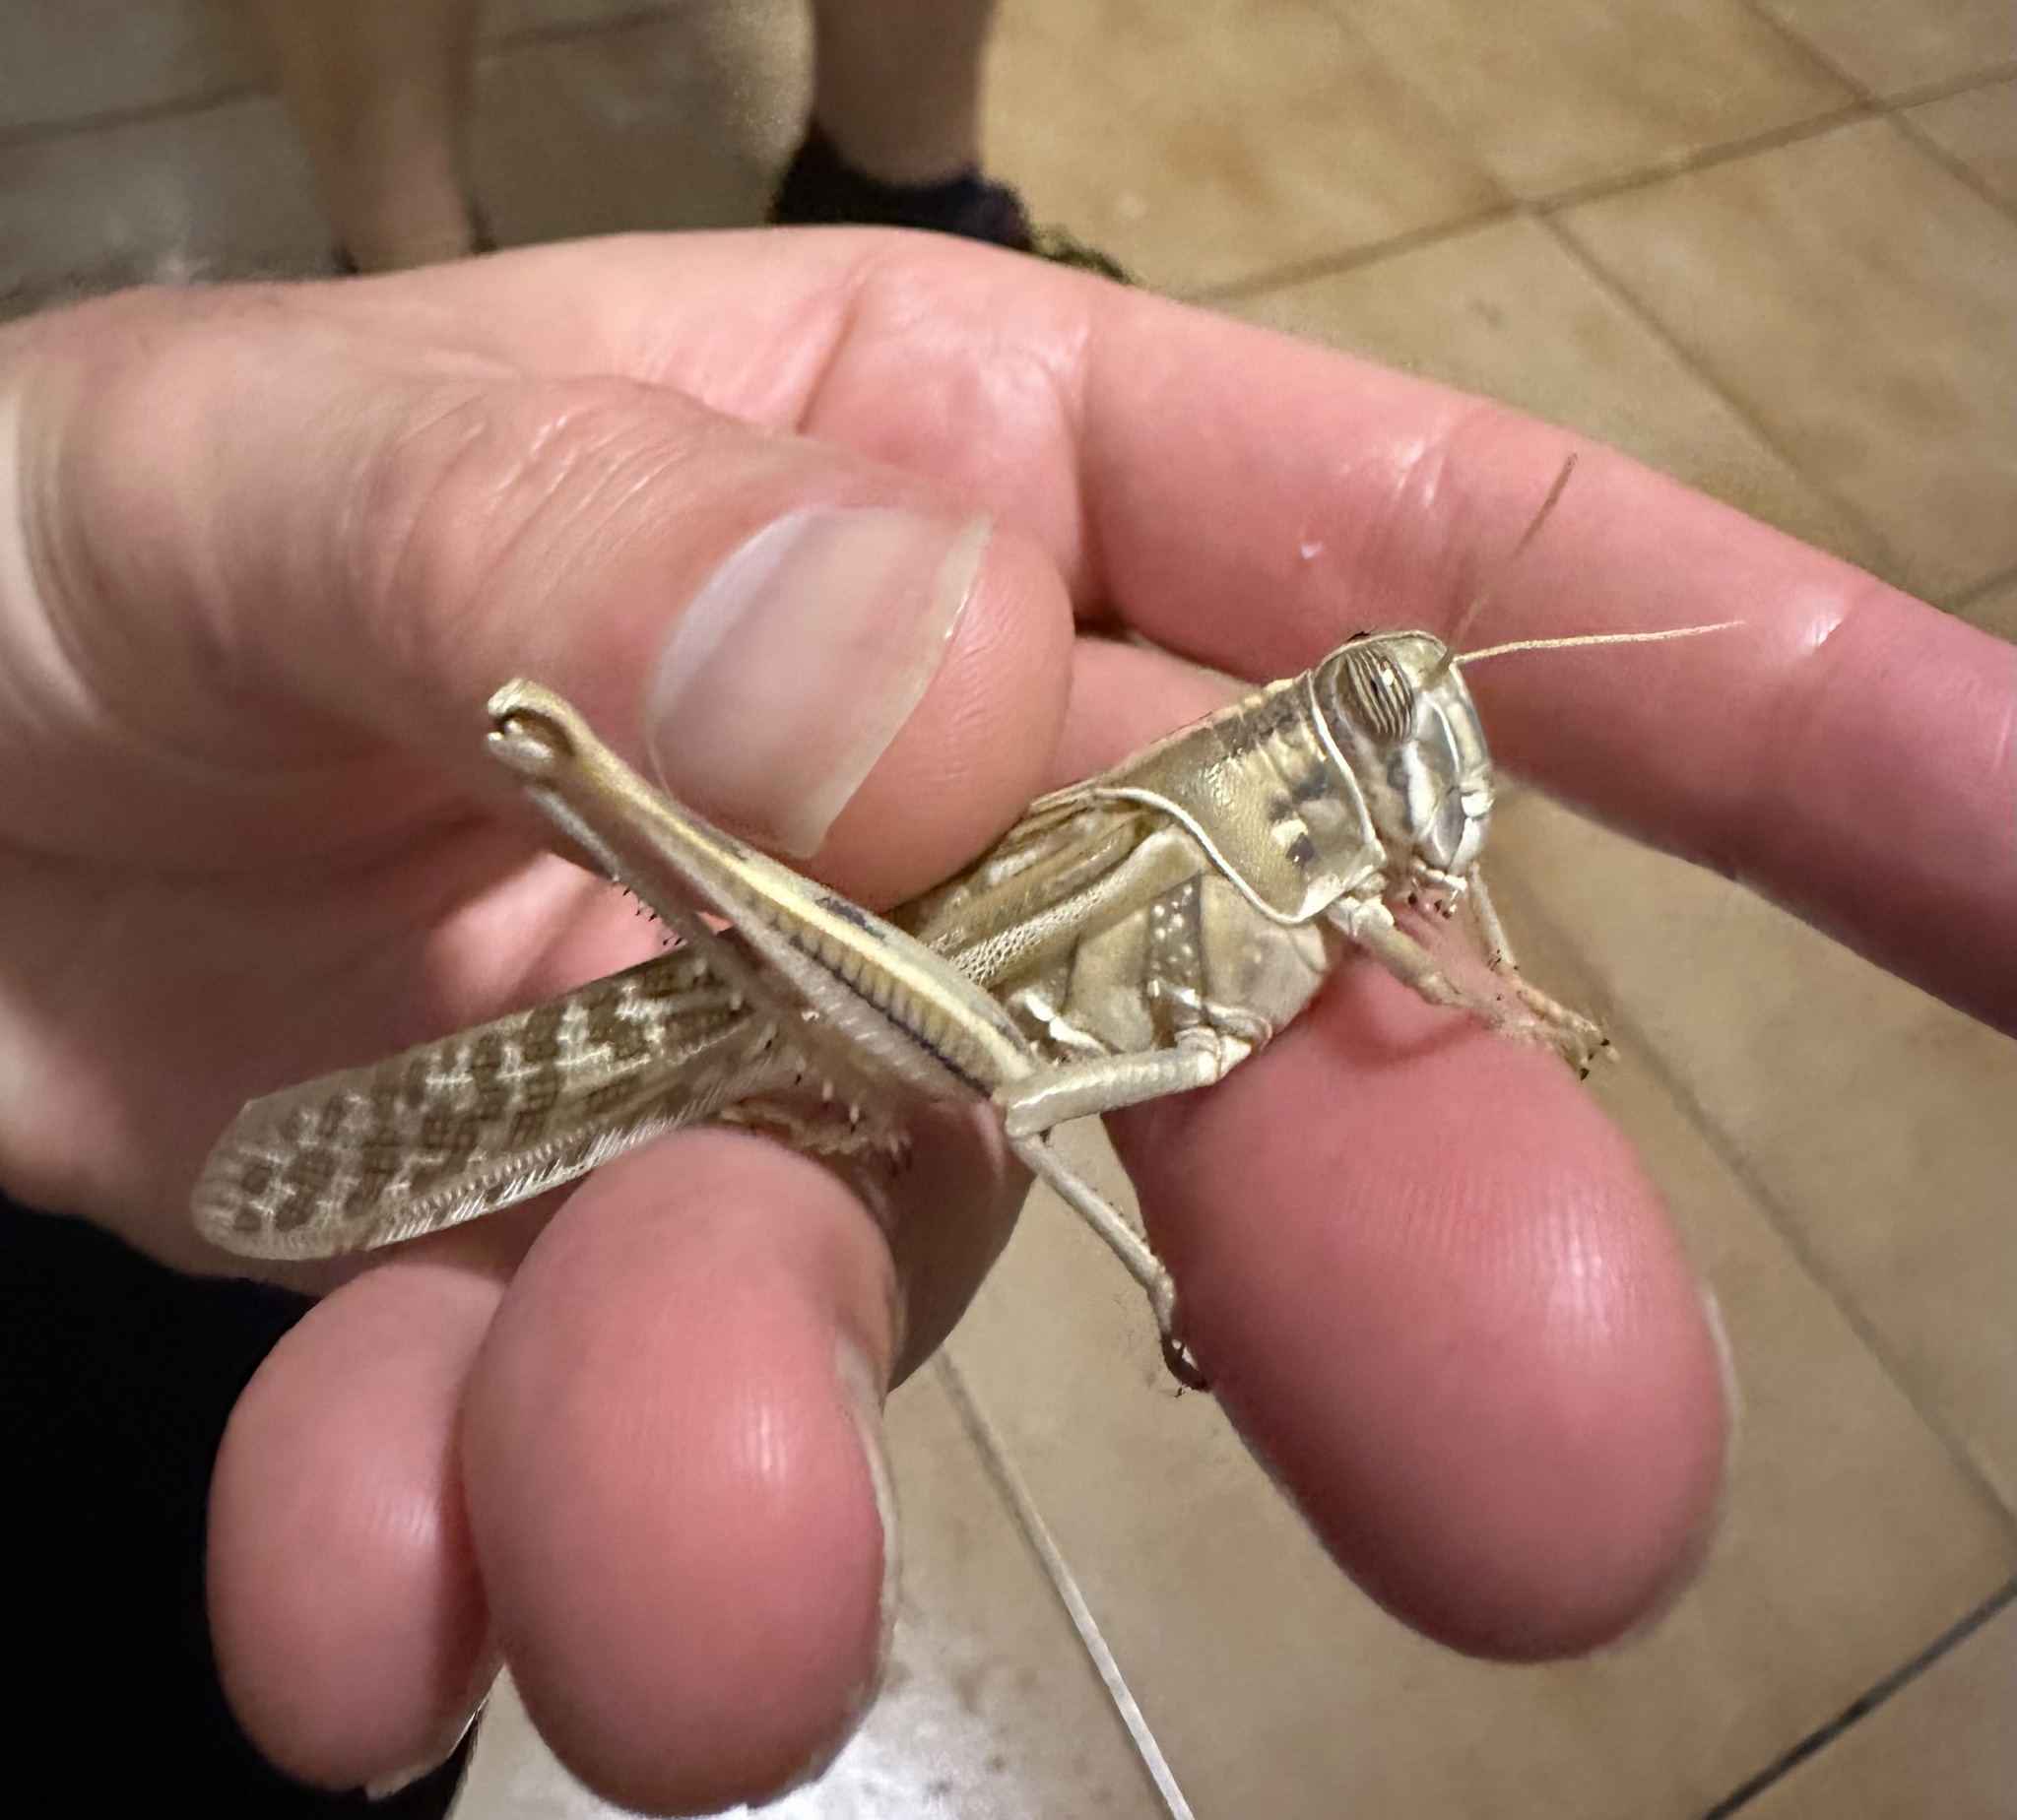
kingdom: Animalia
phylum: Arthropoda
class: Insecta
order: Orthoptera
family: Acrididae
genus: Schistocerca
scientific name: Schistocerca gregaria
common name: Desert locust
